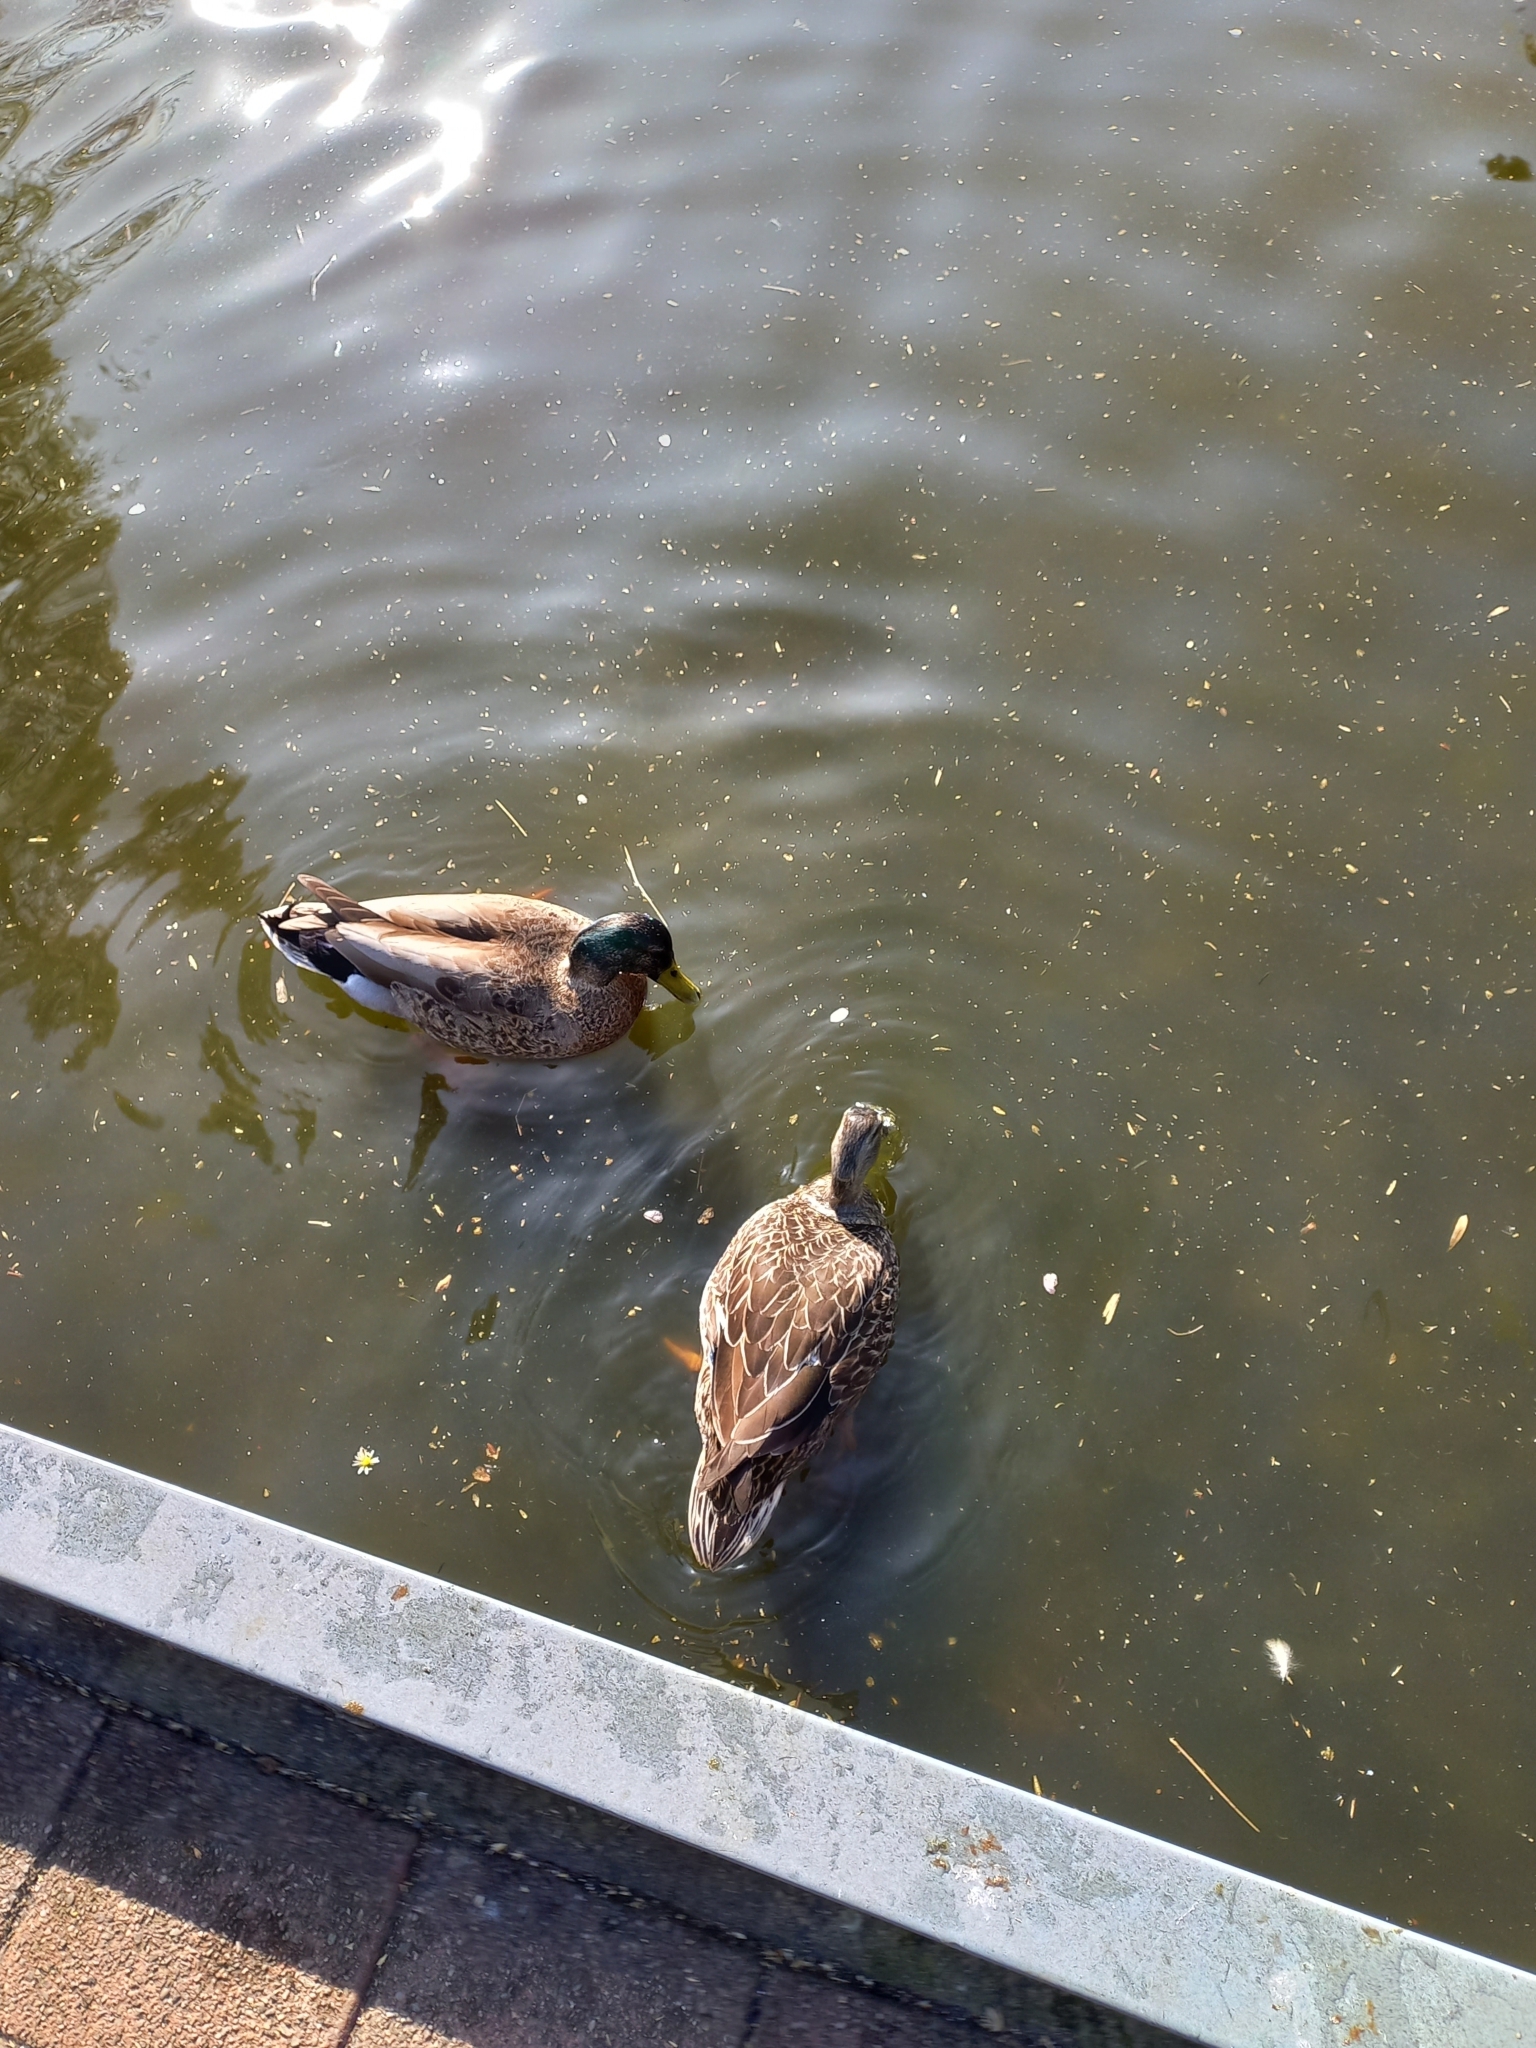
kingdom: Animalia
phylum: Chordata
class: Aves
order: Anseriformes
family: Anatidae
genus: Anas
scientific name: Anas platyrhynchos
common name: Mallard
